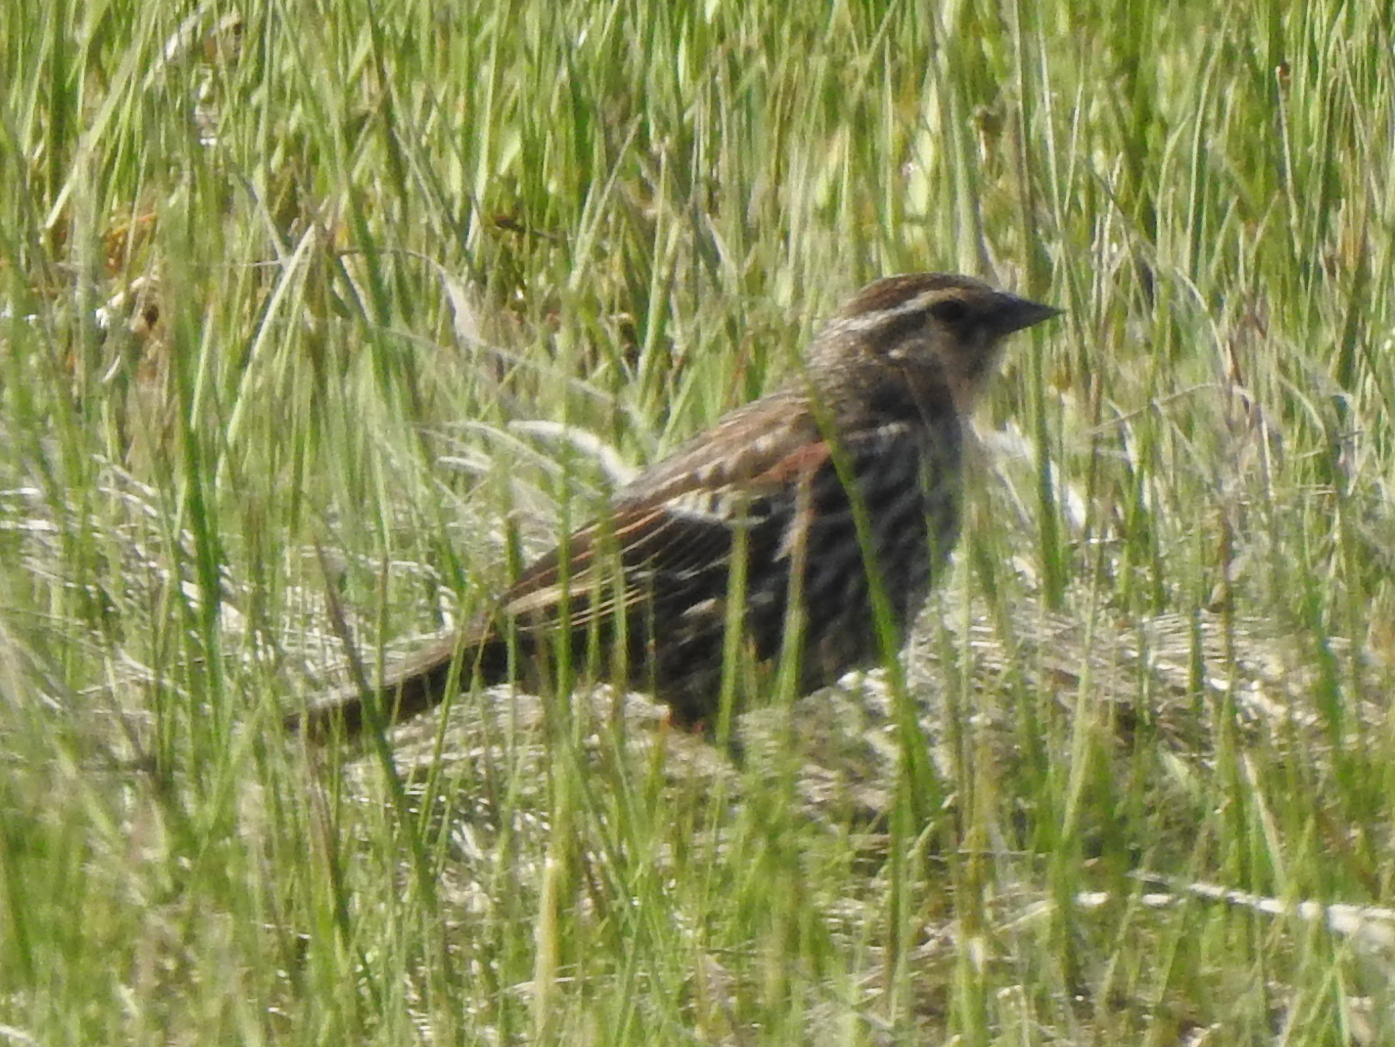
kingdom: Animalia
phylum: Chordata
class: Aves
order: Passeriformes
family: Icteridae
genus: Agelaius
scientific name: Agelaius phoeniceus
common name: Red-winged blackbird
